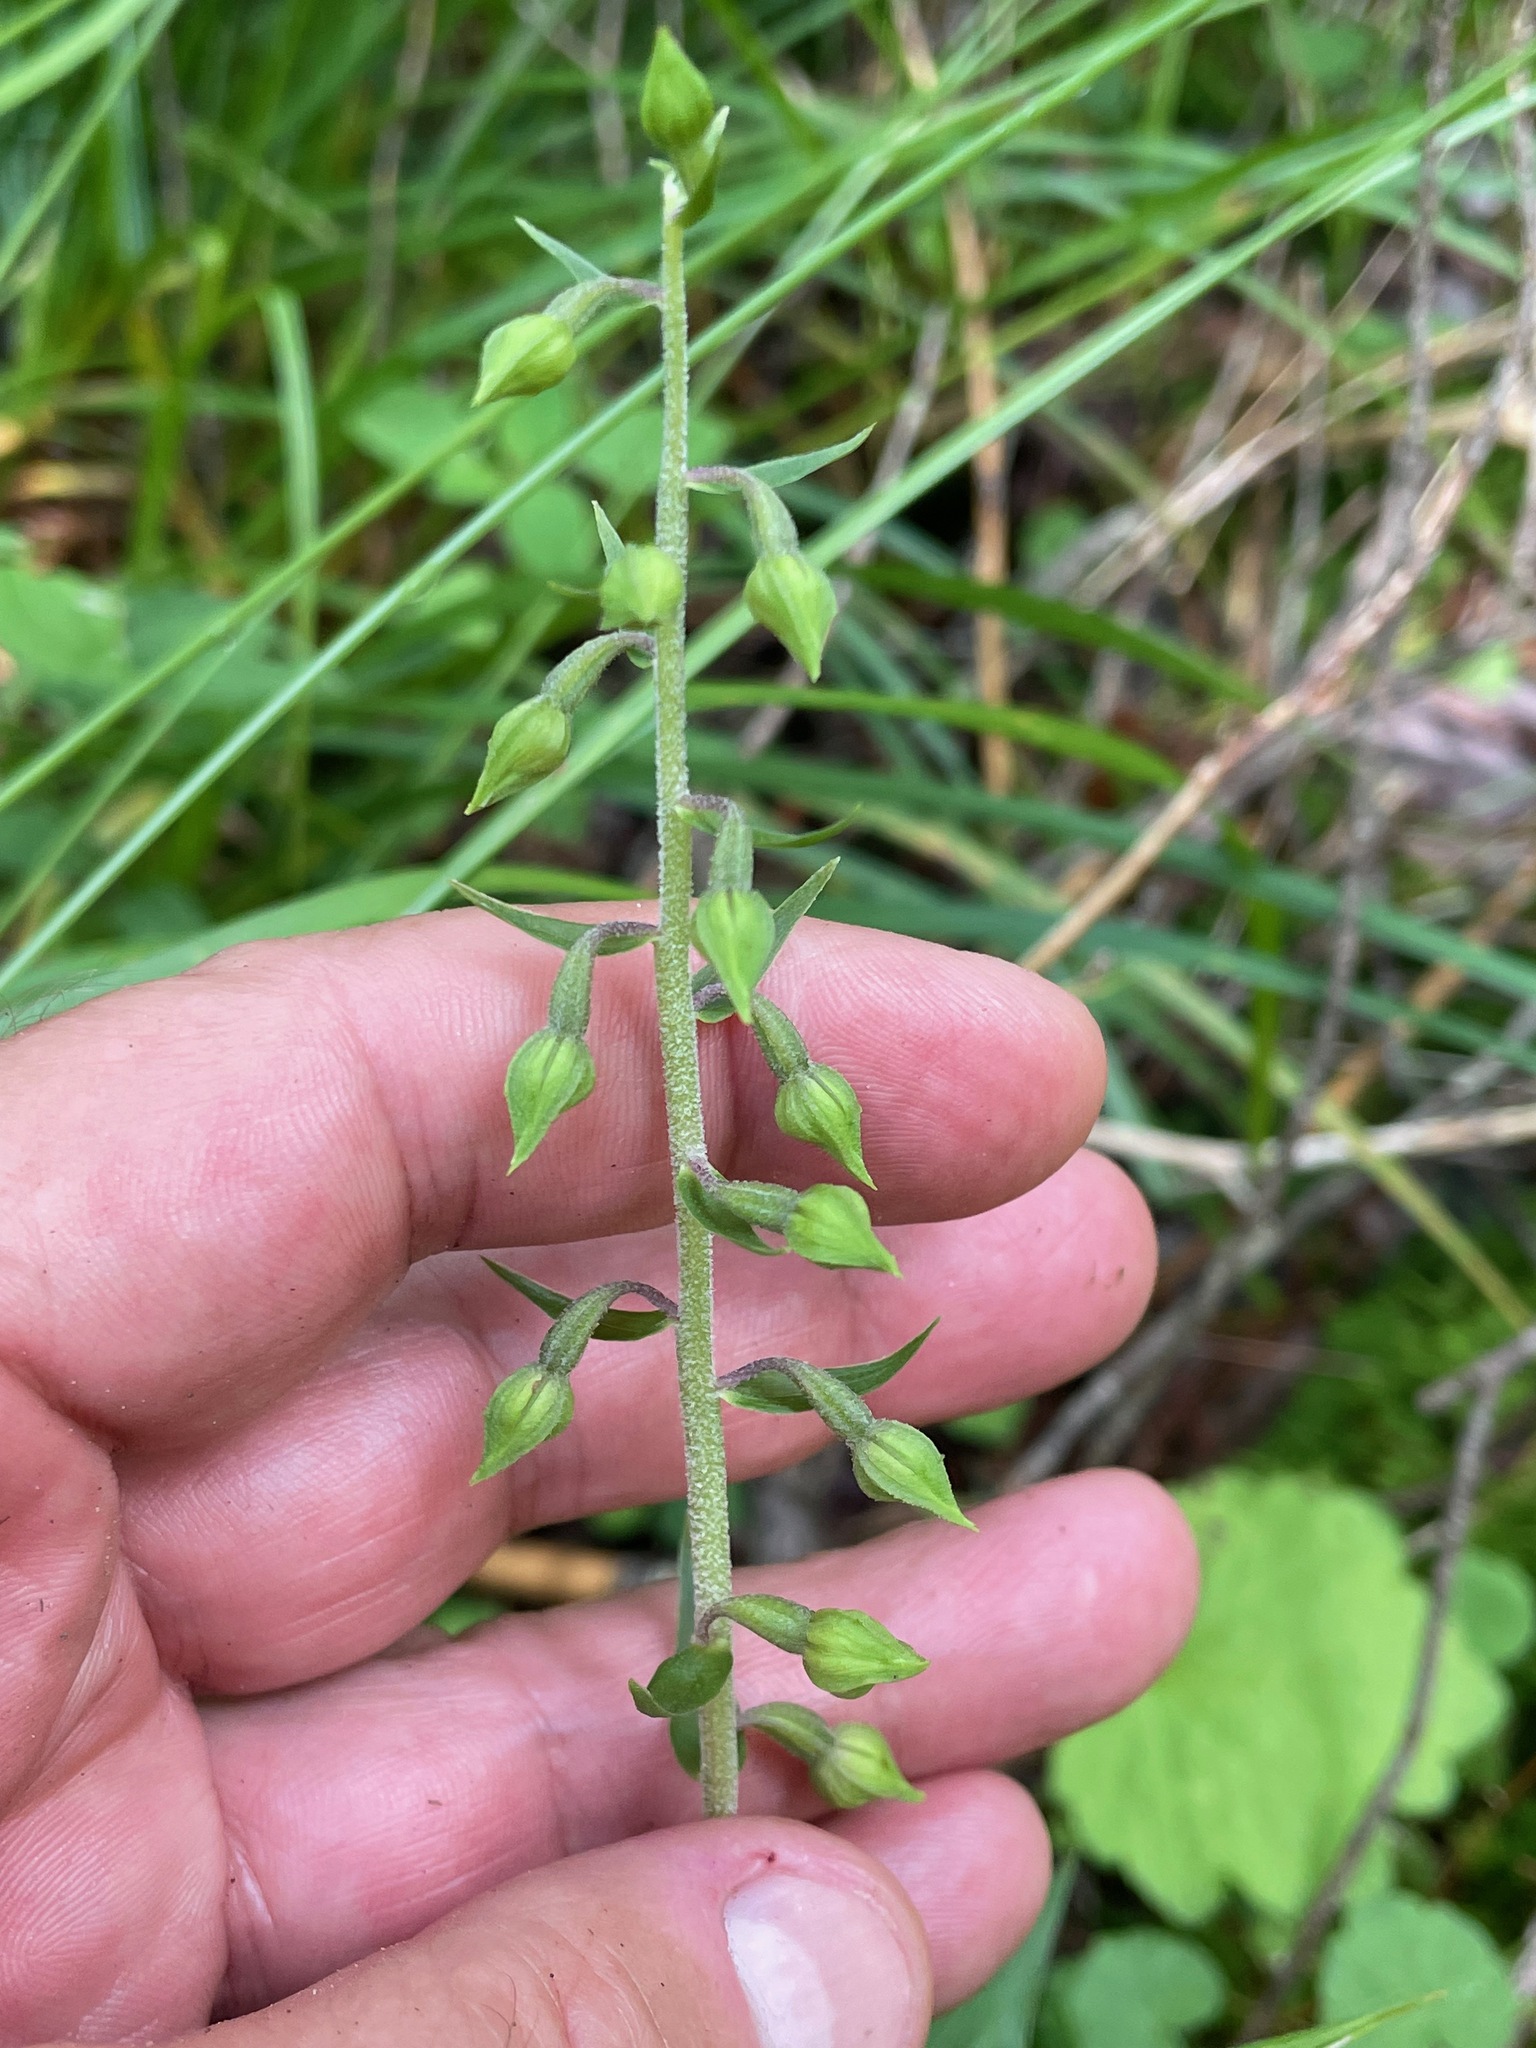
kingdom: Plantae
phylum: Tracheophyta
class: Liliopsida
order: Asparagales
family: Orchidaceae
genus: Epipactis
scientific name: Epipactis helleborine
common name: Broad-leaved helleborine
